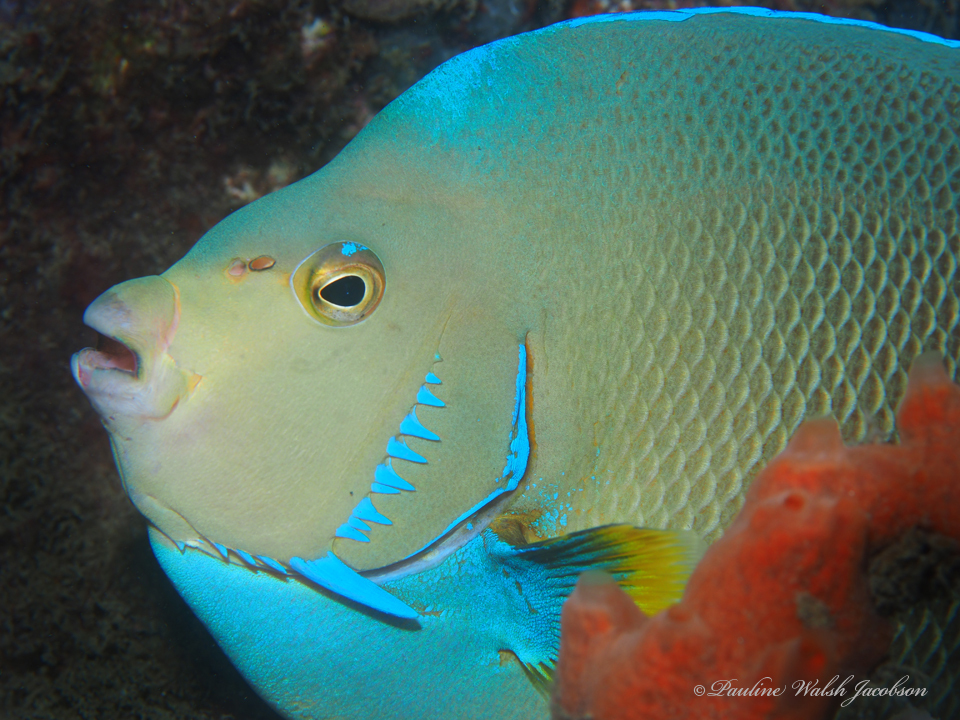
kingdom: Animalia
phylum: Chordata
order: Perciformes
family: Pomacanthidae
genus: Holacanthus
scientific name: Holacanthus bermudensis
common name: Blue angelfish
